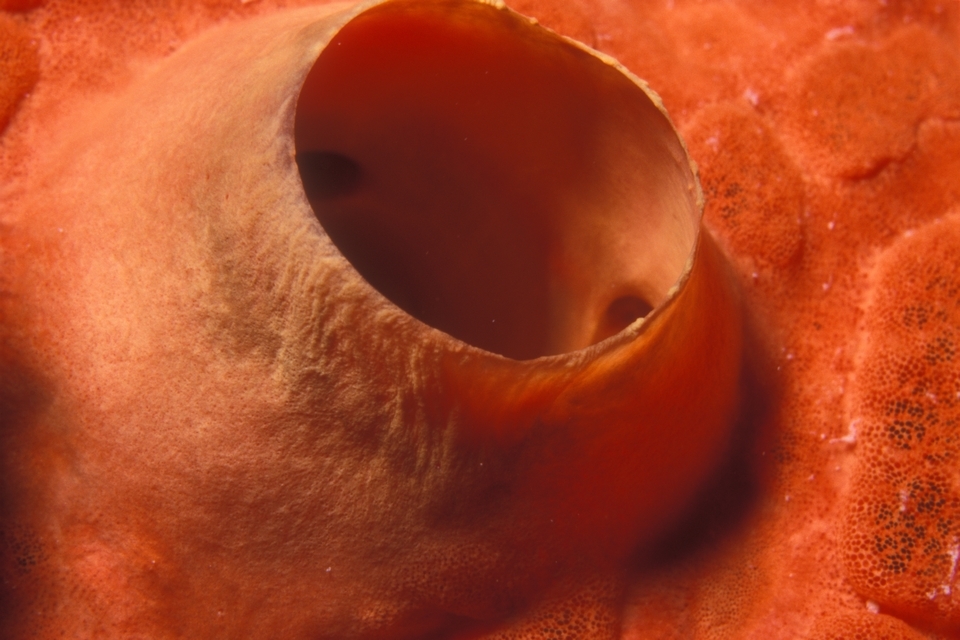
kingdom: Animalia
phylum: Porifera
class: Demospongiae
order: Clionaida
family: Clionaidae
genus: Cliothosa
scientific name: Cliothosa delitrix
